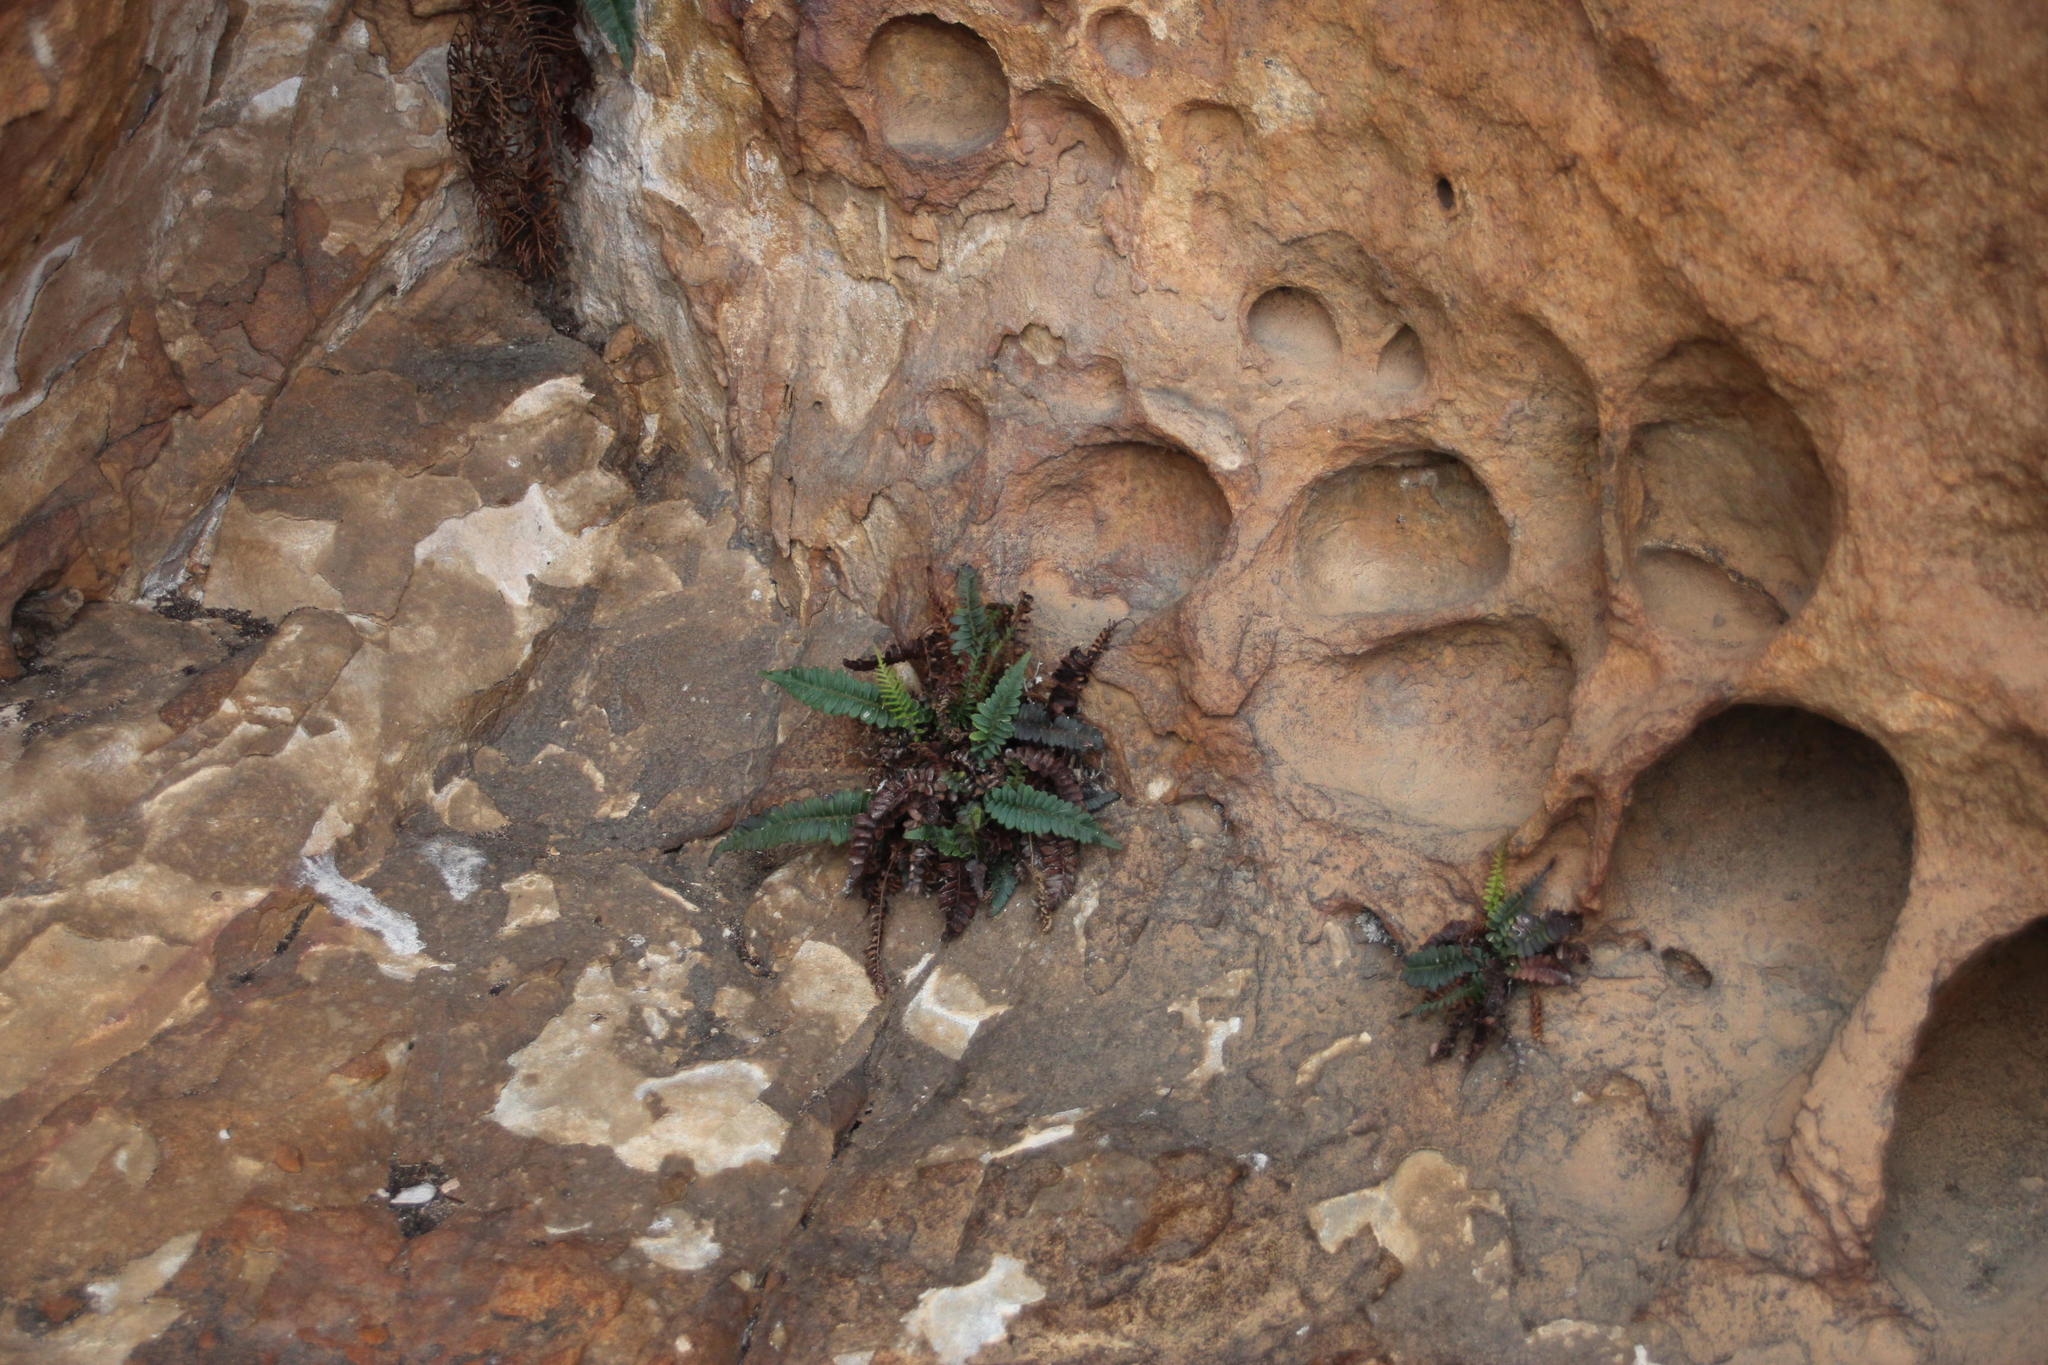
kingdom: Plantae
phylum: Tracheophyta
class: Polypodiopsida
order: Polypodiales
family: Blechnaceae
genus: Lomaria
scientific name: Lomaria inflexa
